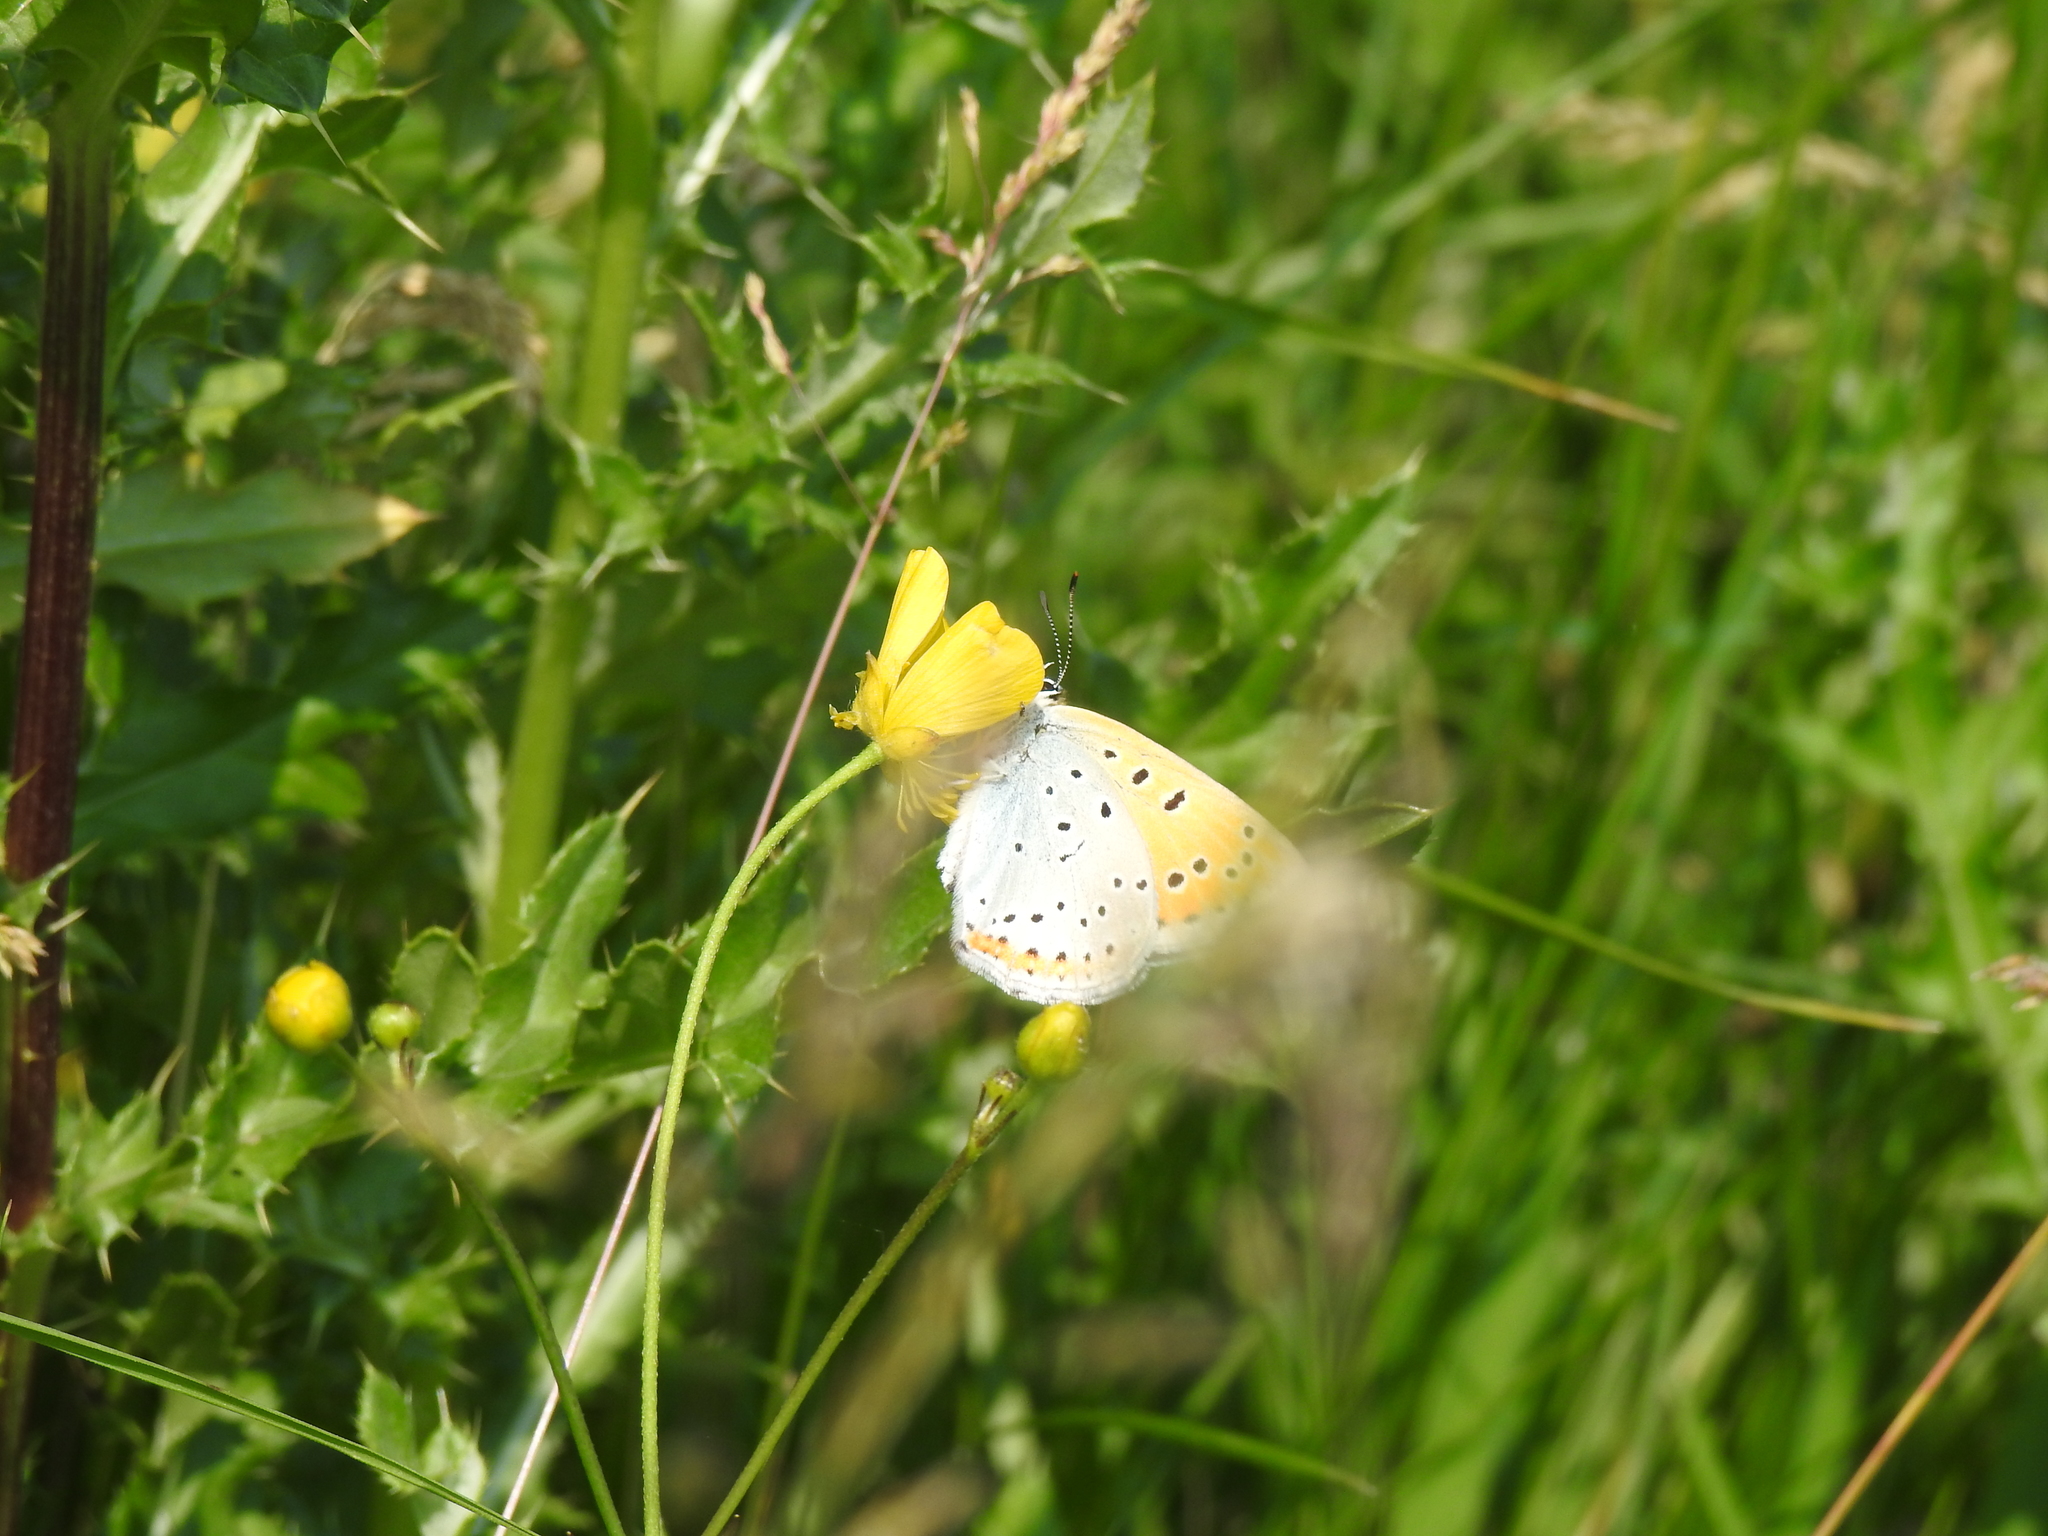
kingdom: Animalia
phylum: Arthropoda
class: Insecta
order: Lepidoptera
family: Lycaenidae
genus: Lycaena
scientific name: Lycaena dispar
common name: Large copper
